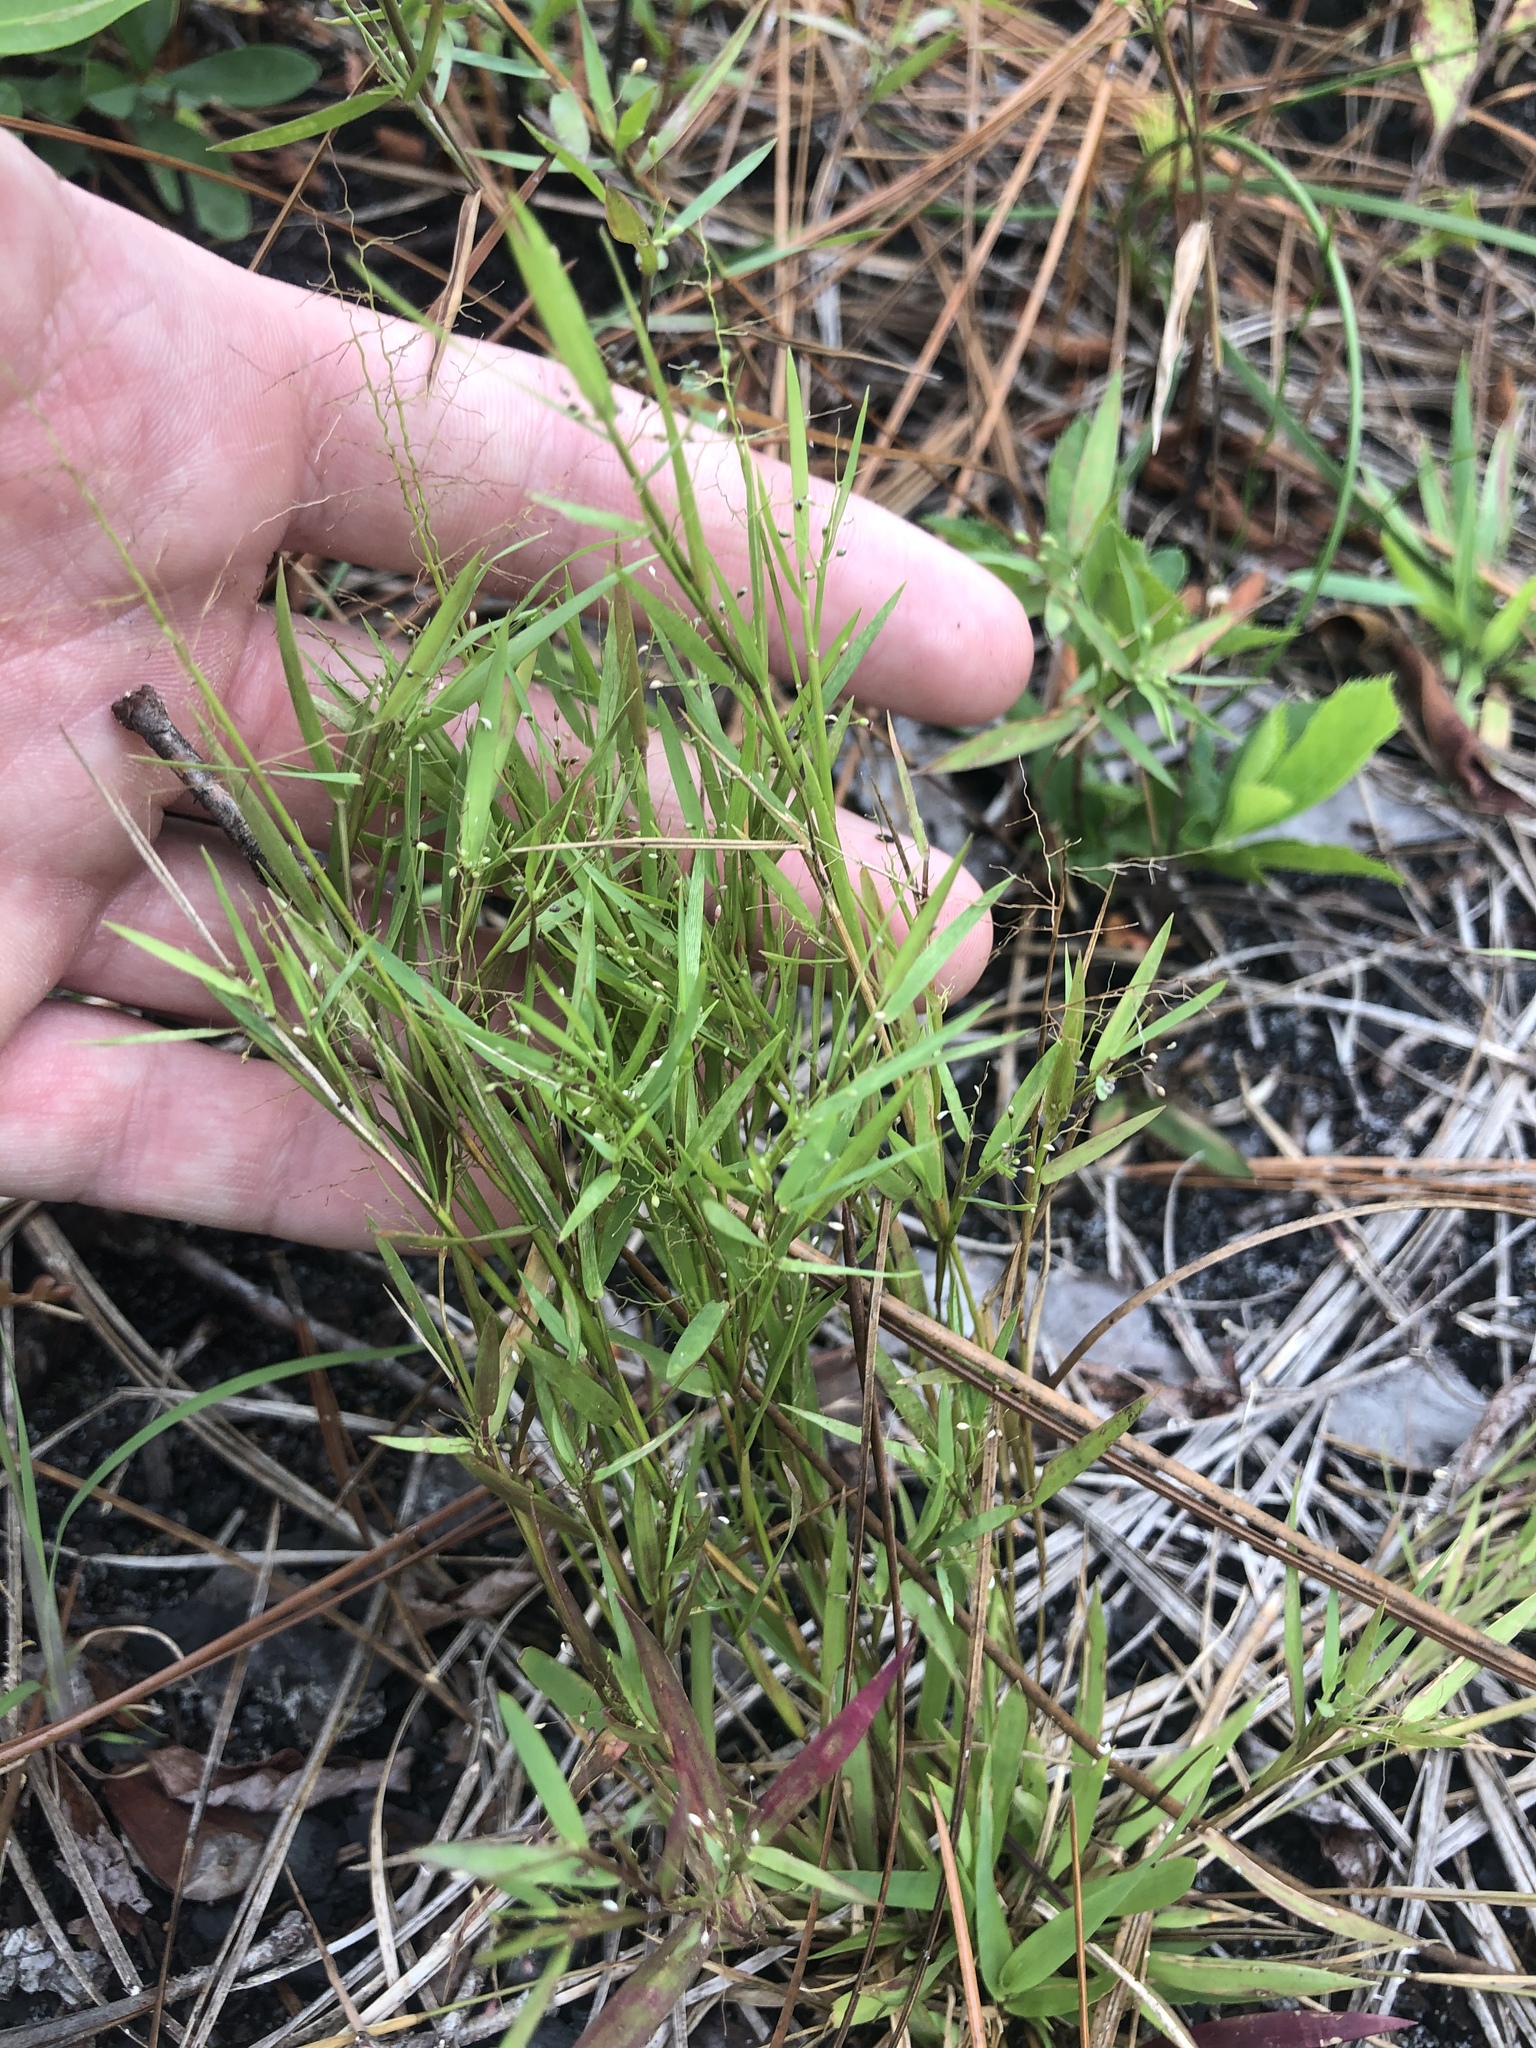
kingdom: Plantae
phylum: Tracheophyta
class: Liliopsida
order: Poales
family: Poaceae
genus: Dichanthelium
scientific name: Dichanthelium chamaelonche
